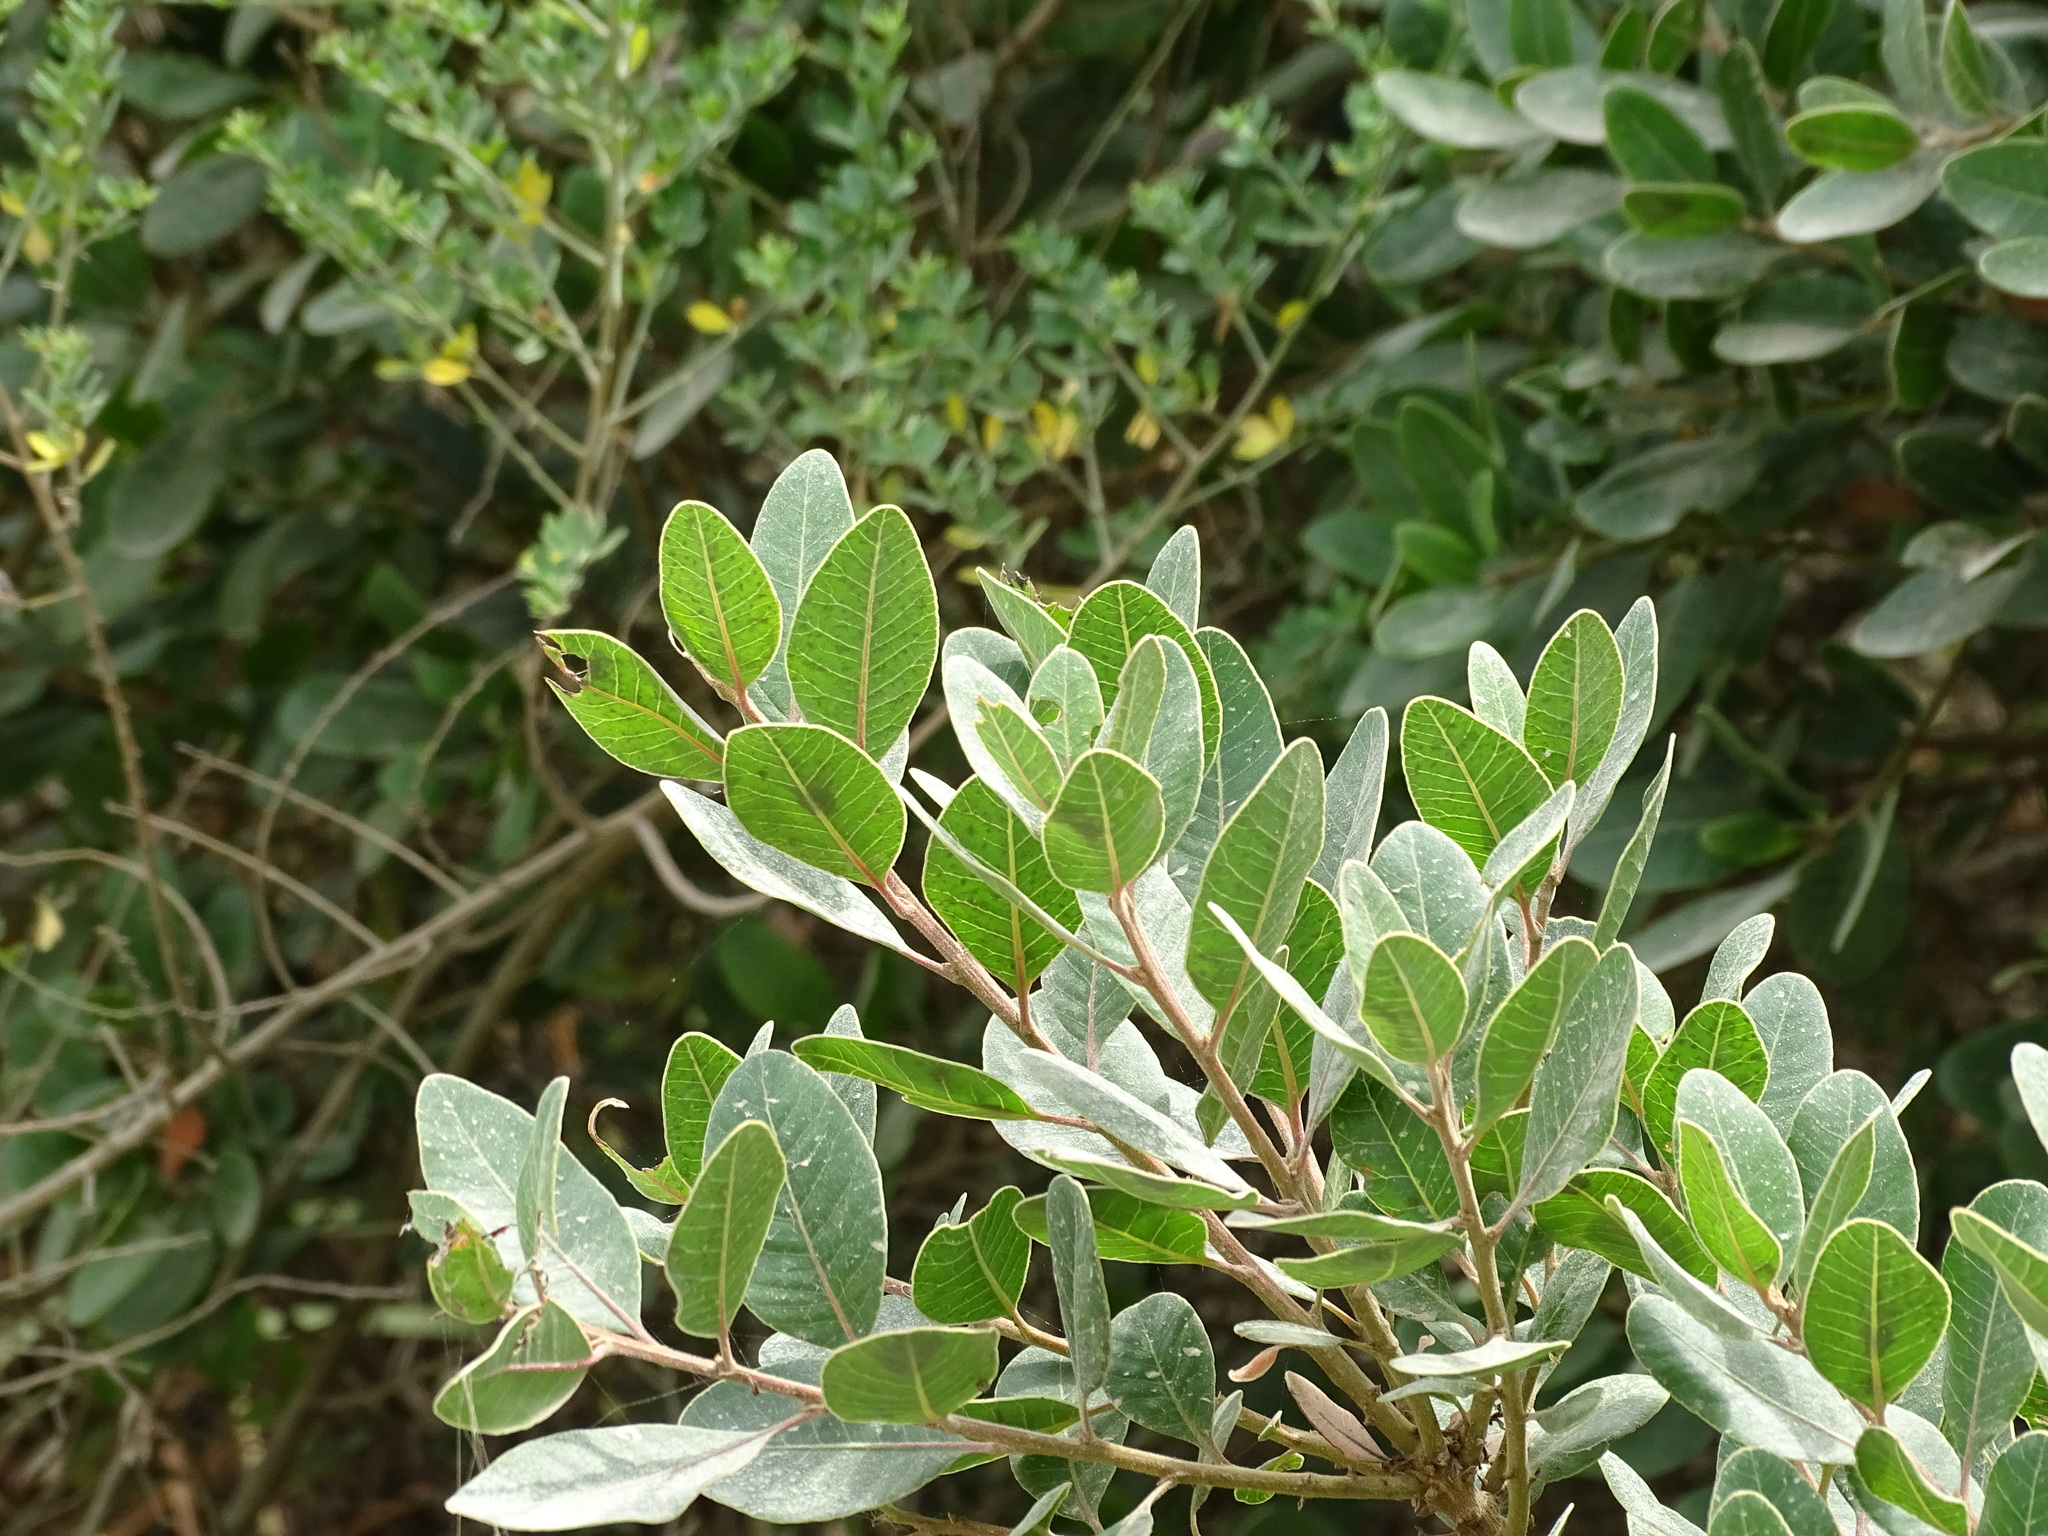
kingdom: Plantae
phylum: Tracheophyta
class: Magnoliopsida
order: Sapindales
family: Anacardiaceae
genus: Lithraea
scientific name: Lithraea caustica
